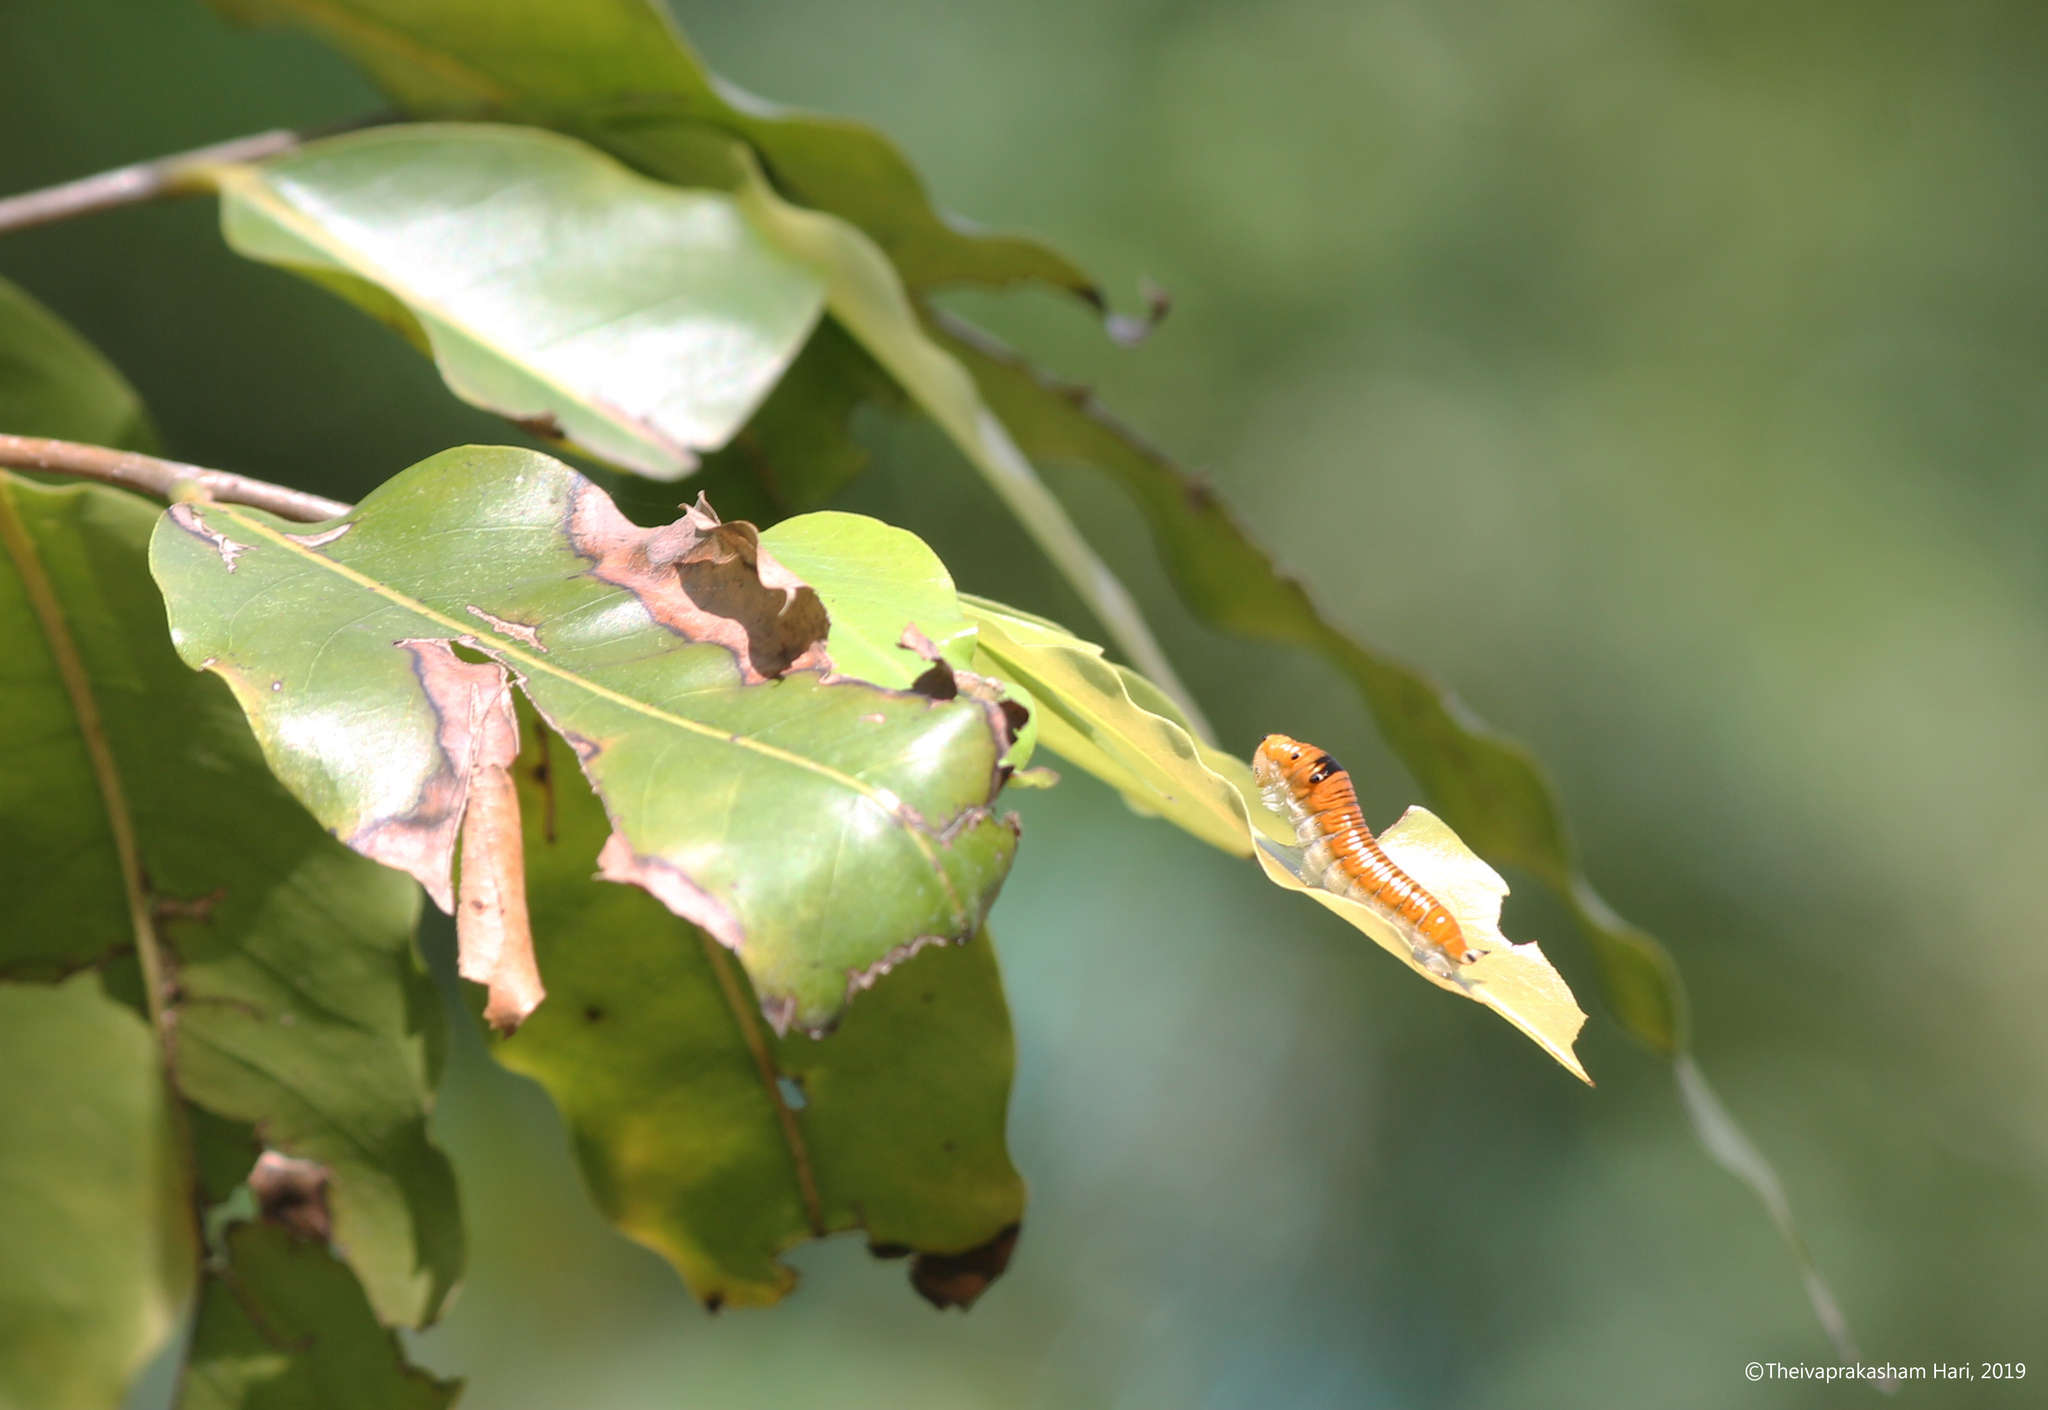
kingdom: Animalia
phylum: Arthropoda
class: Insecta
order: Lepidoptera
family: Papilionidae
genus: Graphium
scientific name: Graphium nomius
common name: Spot swordtail
